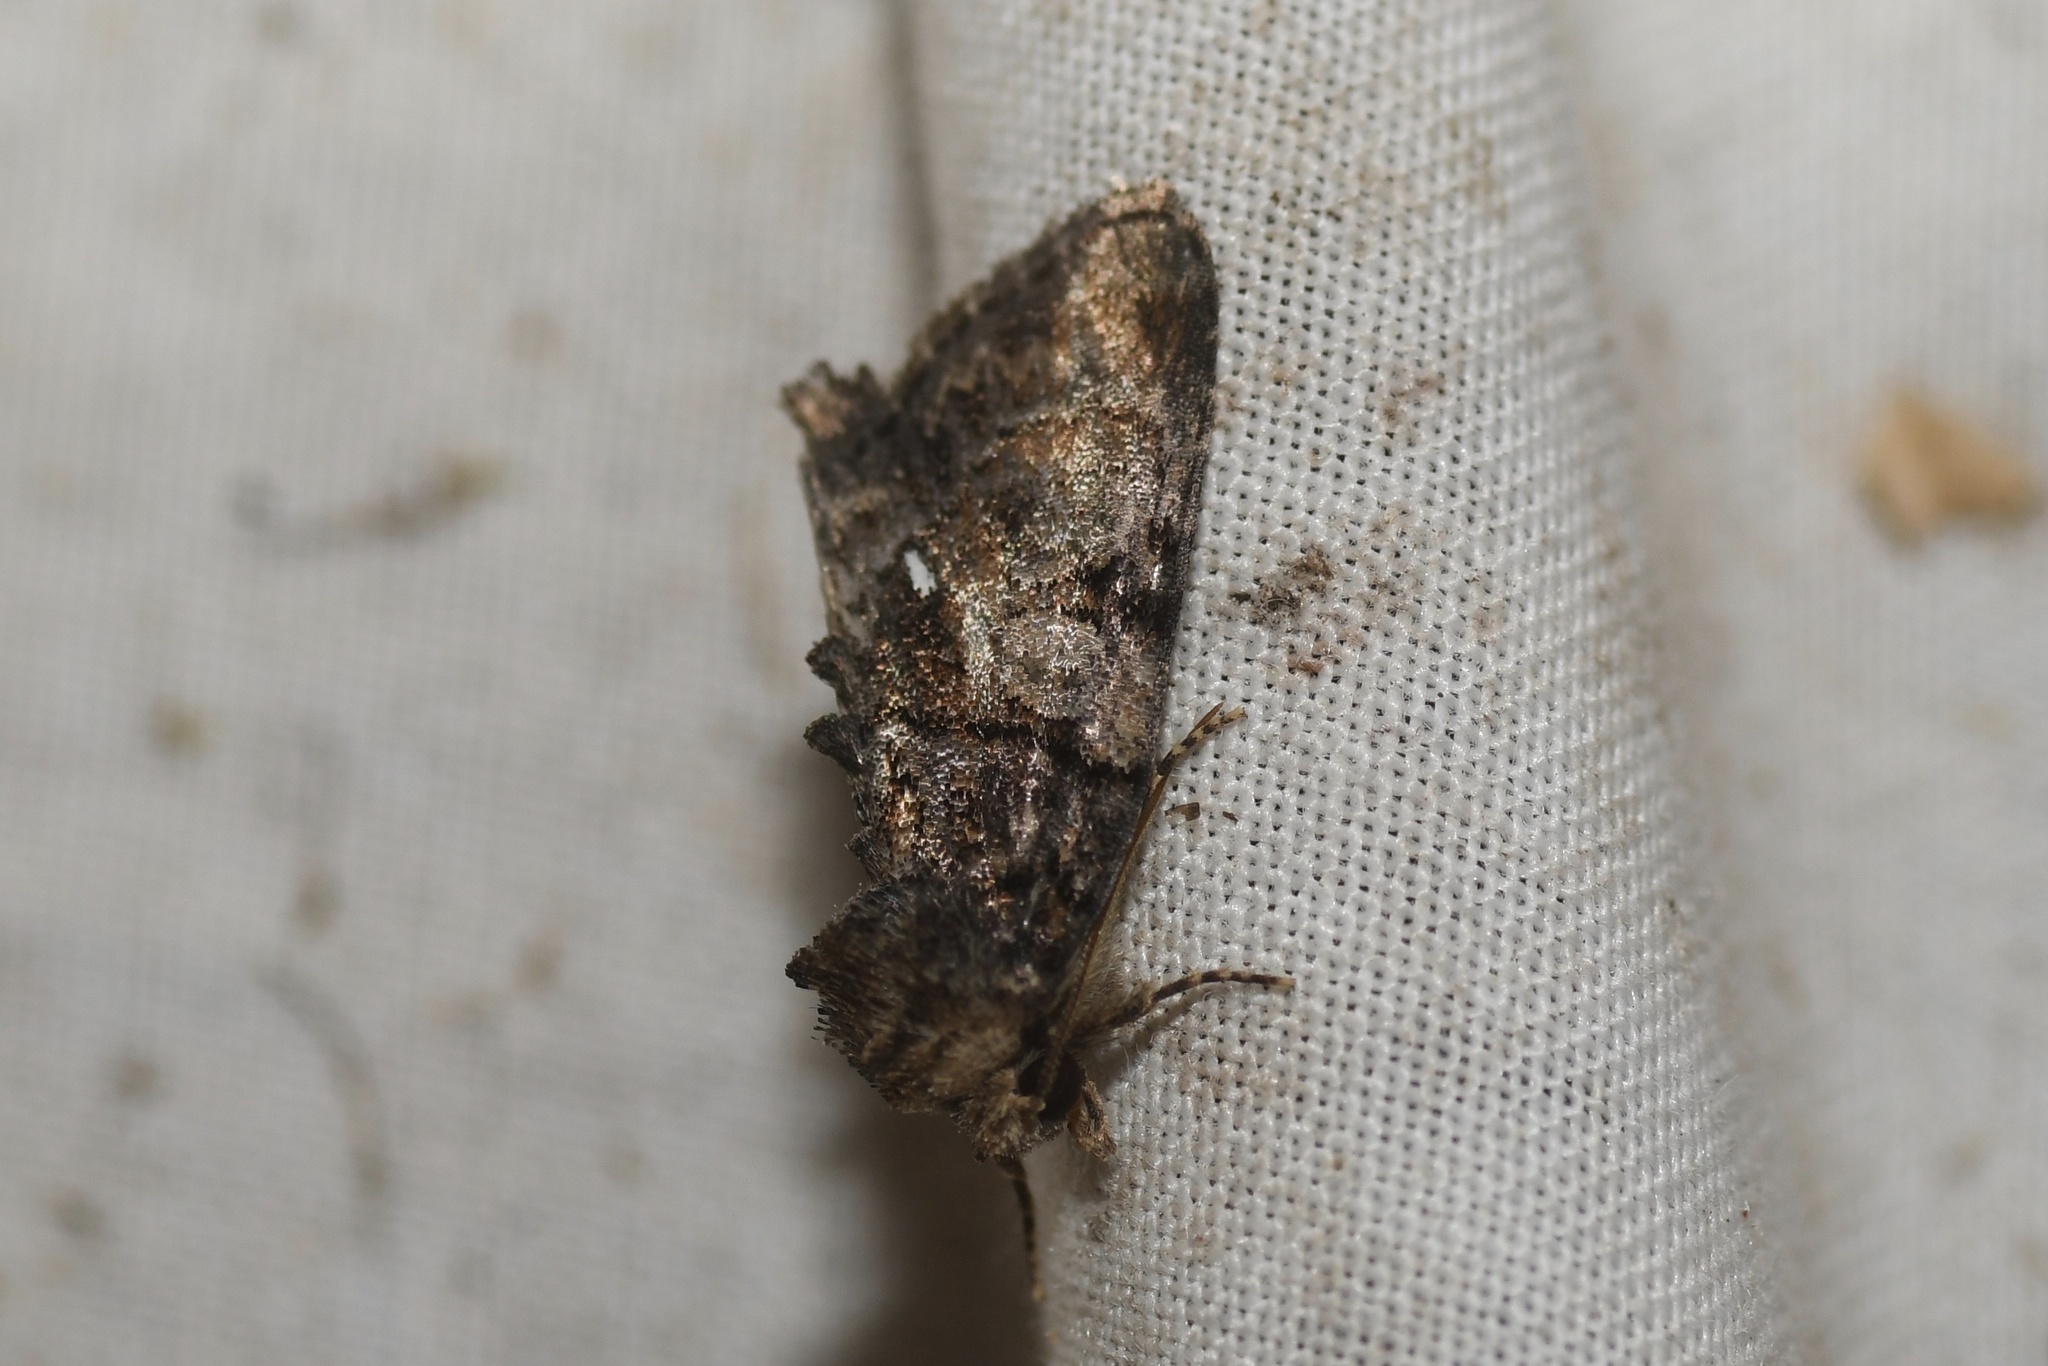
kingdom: Animalia
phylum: Arthropoda
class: Insecta
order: Lepidoptera
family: Noctuidae
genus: Chytonix
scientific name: Chytonix palliatricula
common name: Cloaked marvel
